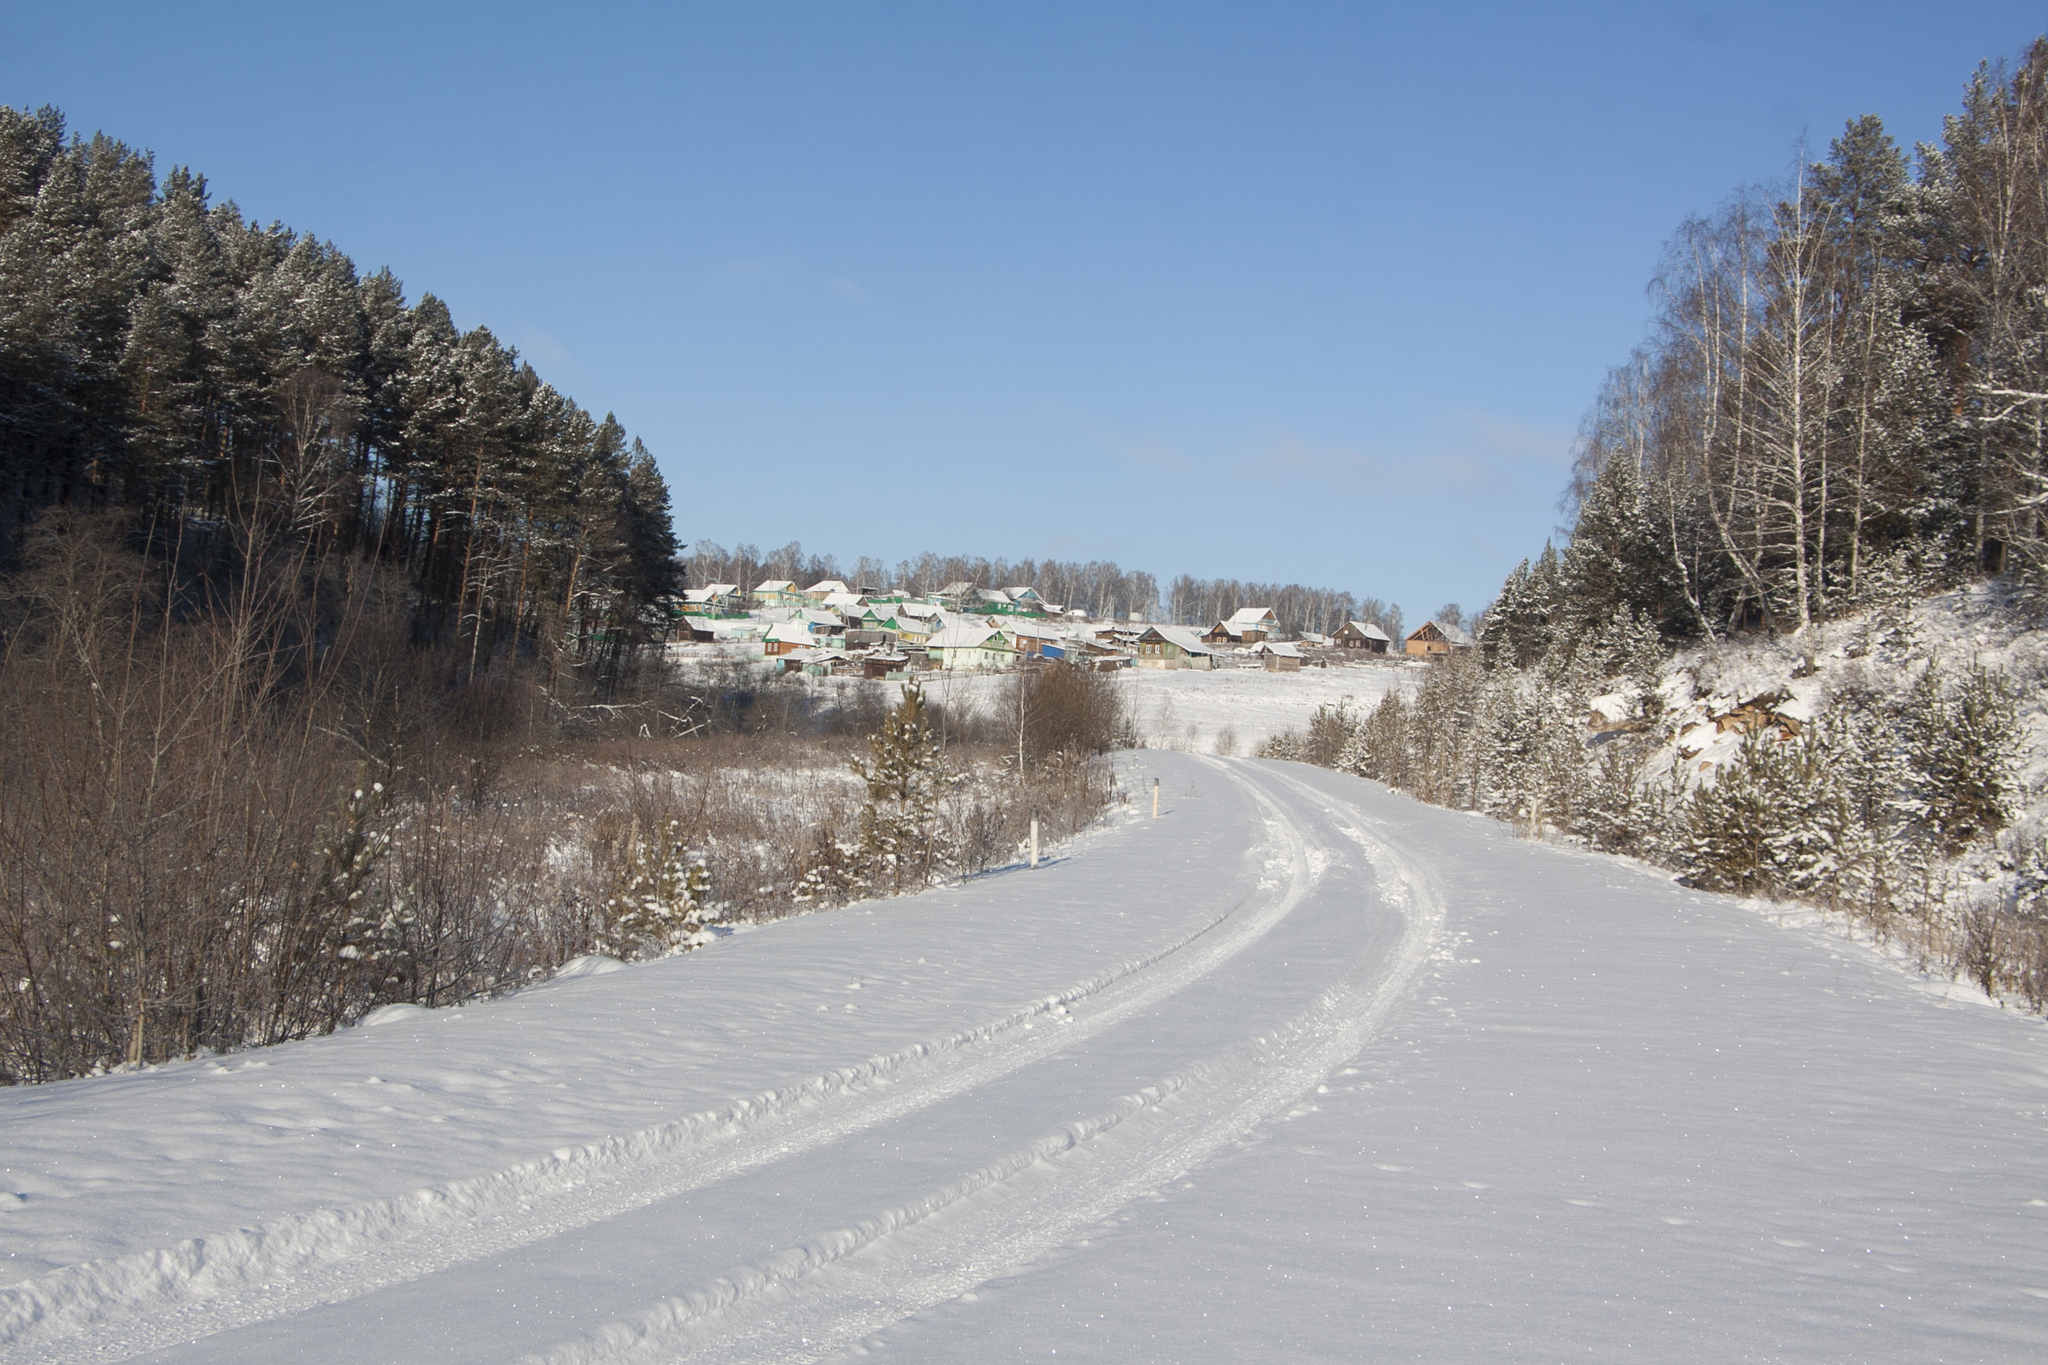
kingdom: Plantae
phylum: Tracheophyta
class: Pinopsida
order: Pinales
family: Pinaceae
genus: Pinus
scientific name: Pinus sylvestris
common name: Scots pine
